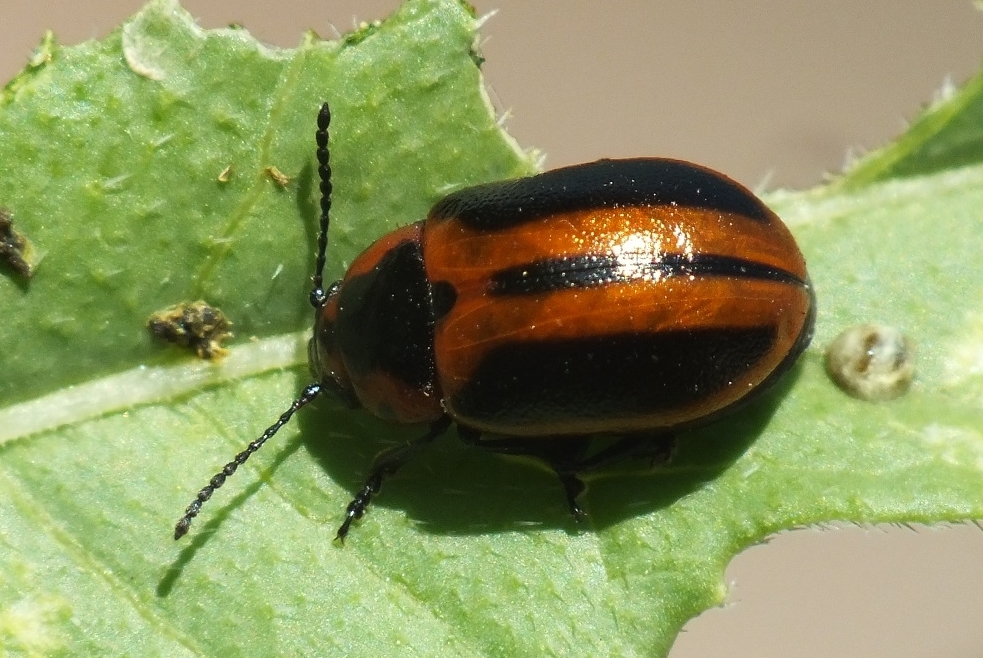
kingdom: Animalia
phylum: Arthropoda
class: Insecta
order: Coleoptera
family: Chrysomelidae
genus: Entomoscelis
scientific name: Entomoscelis adonidis
